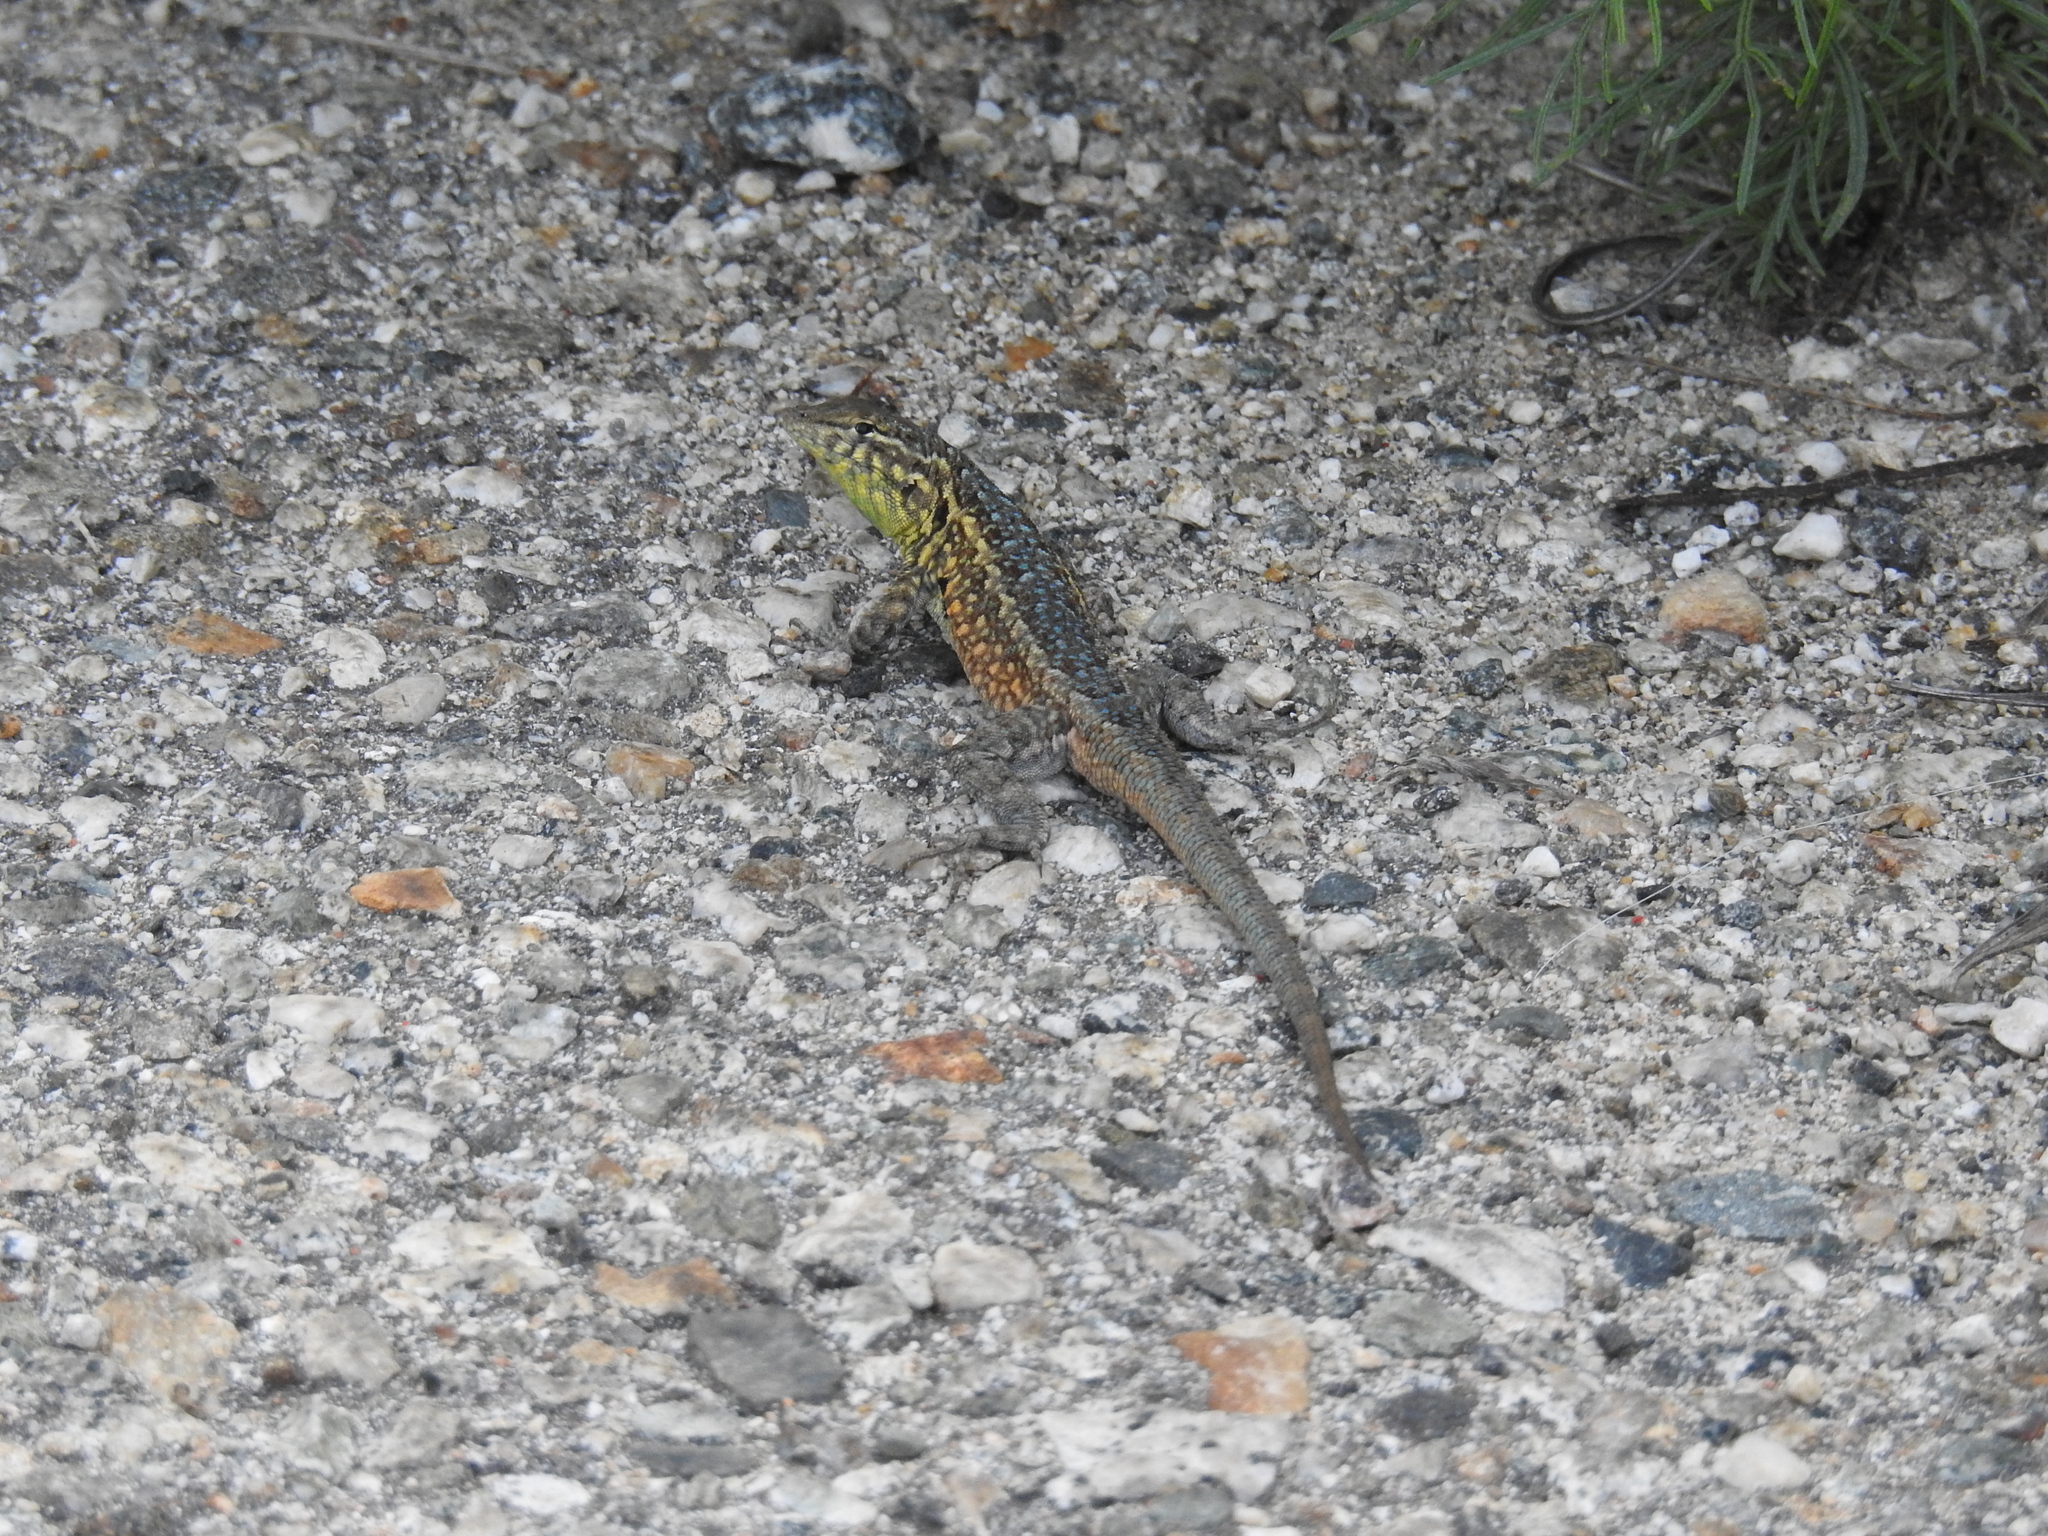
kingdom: Animalia
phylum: Chordata
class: Squamata
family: Phrynosomatidae
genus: Uta
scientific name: Uta stansburiana
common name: Side-blotched lizard
